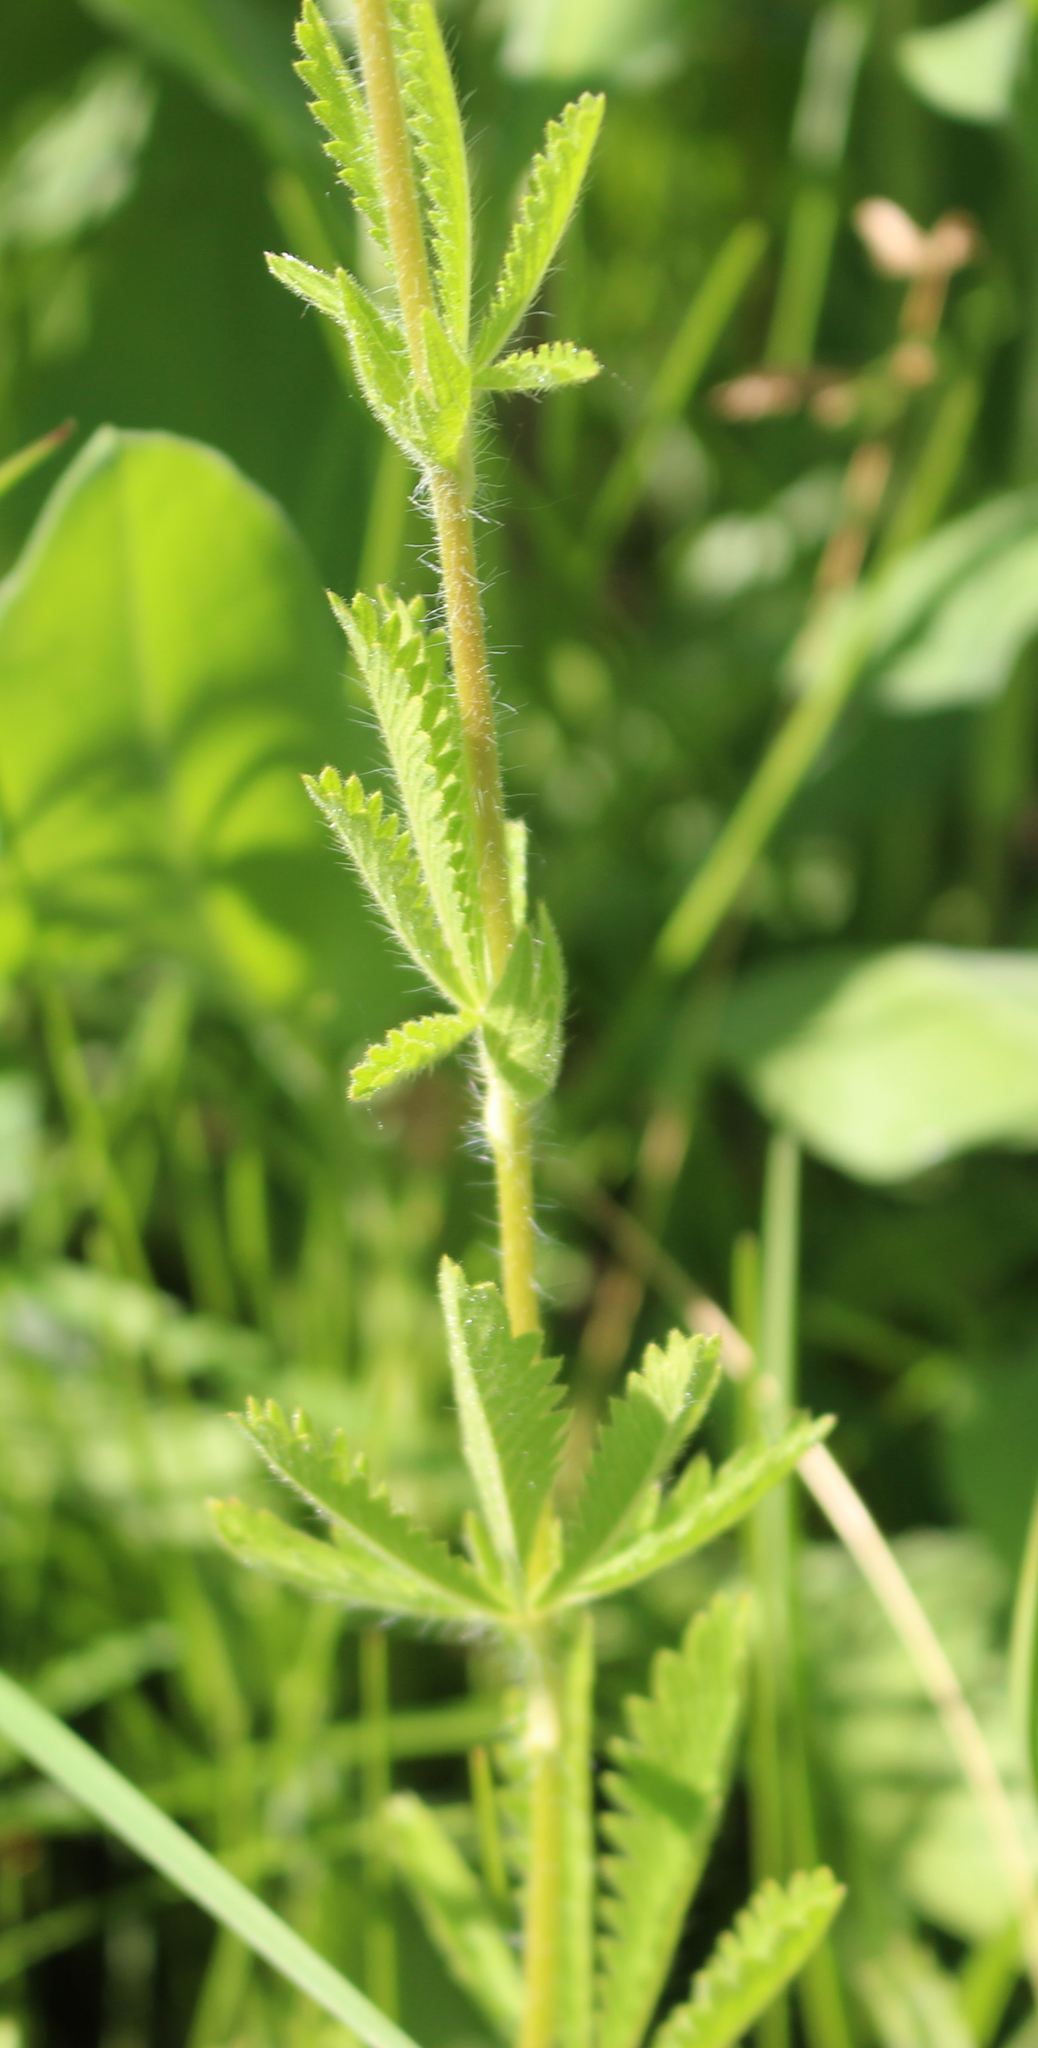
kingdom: Plantae
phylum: Tracheophyta
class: Magnoliopsida
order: Rosales
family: Rosaceae
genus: Potentilla
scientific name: Potentilla recta
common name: Sulphur cinquefoil
